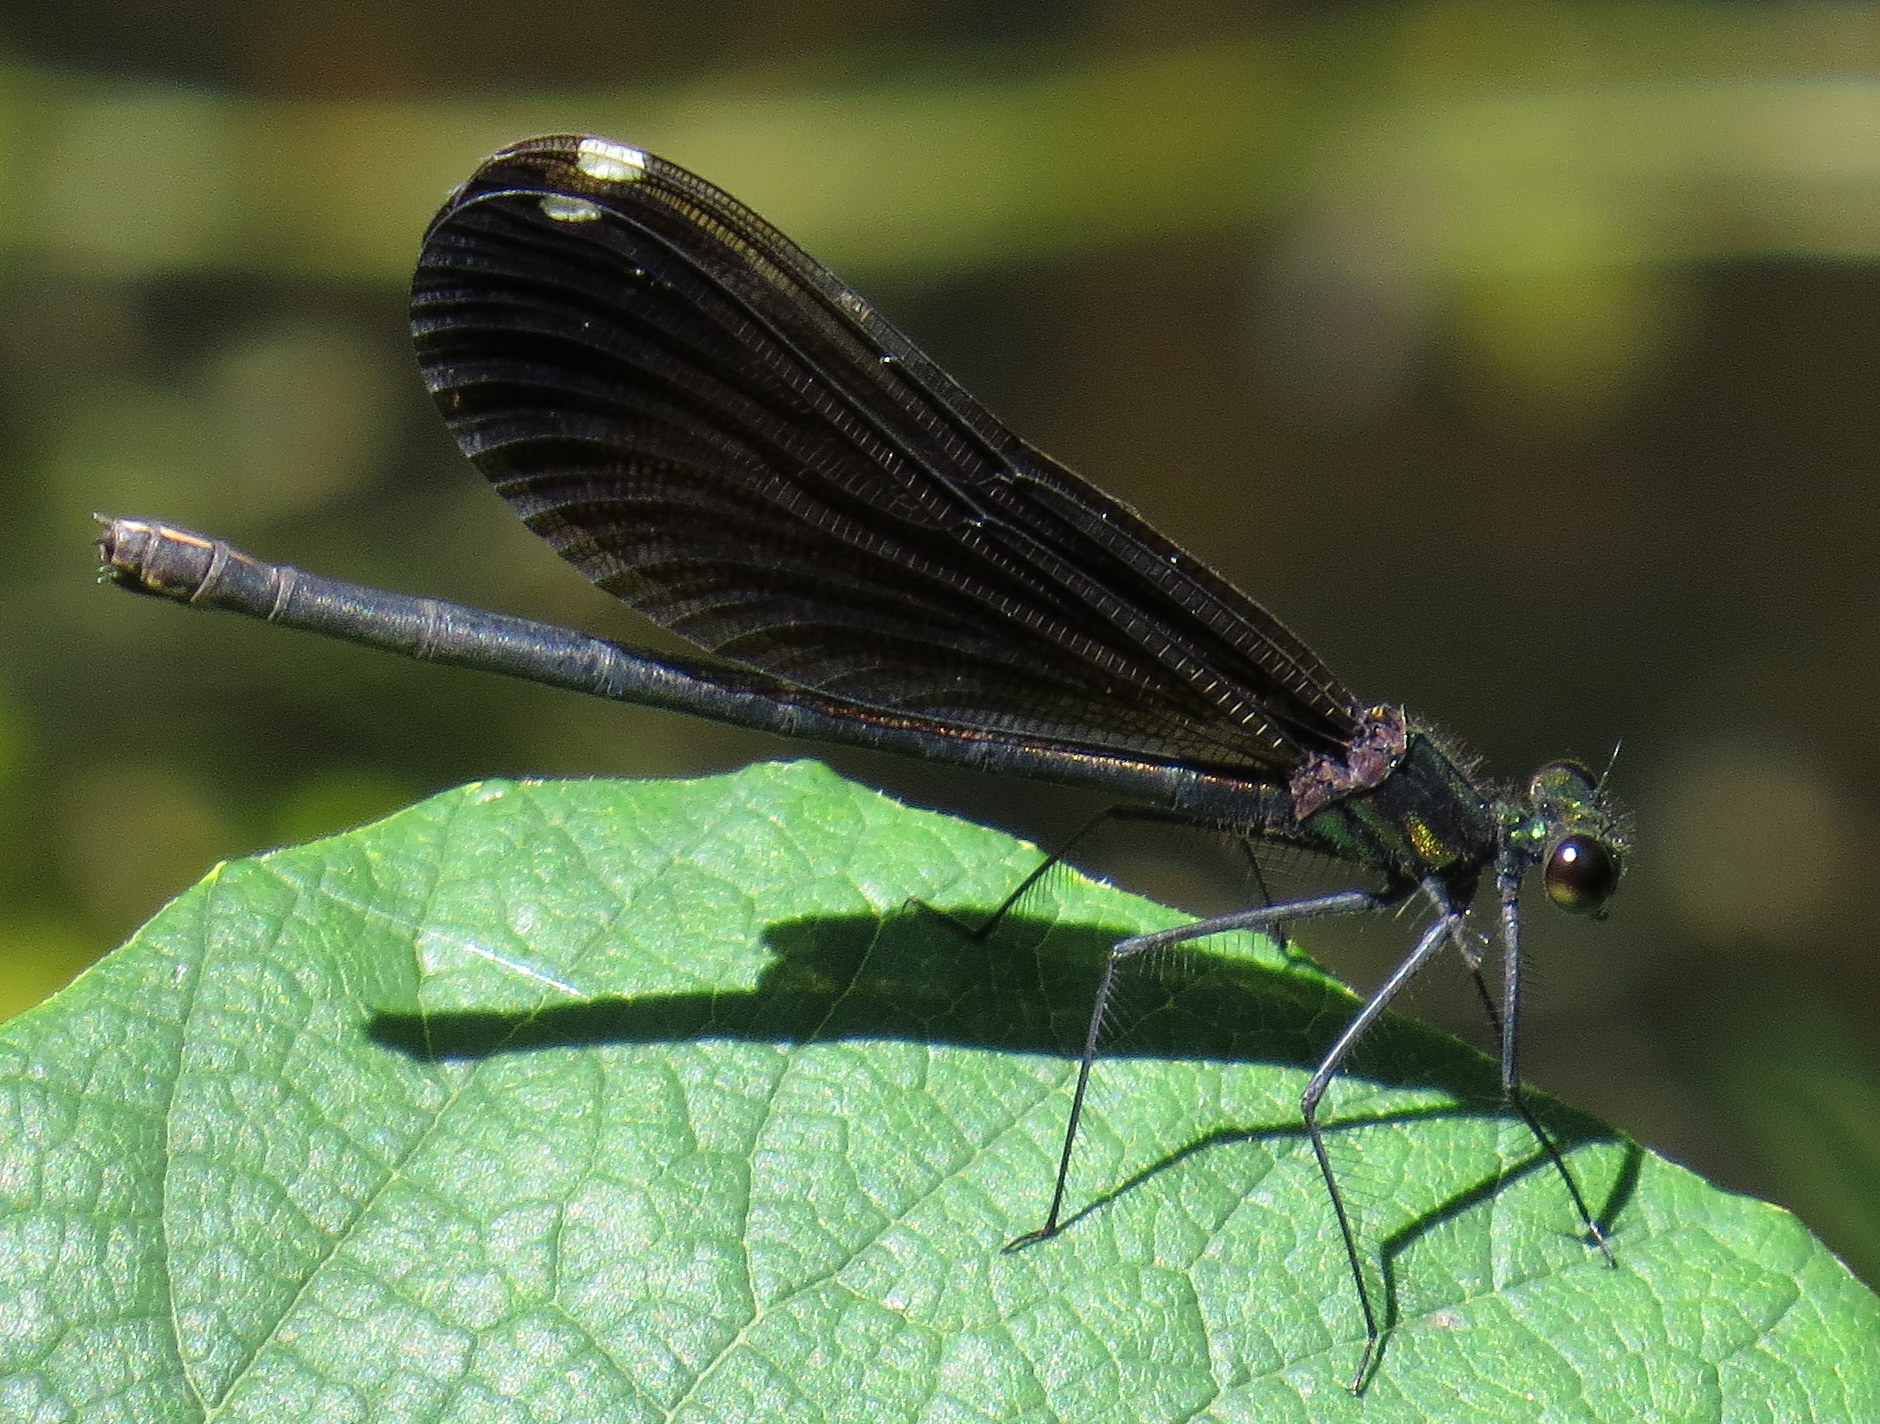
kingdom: Animalia
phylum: Arthropoda
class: Insecta
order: Odonata
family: Calopterygidae
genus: Calopteryx
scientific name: Calopteryx maculata
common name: Ebony jewelwing
